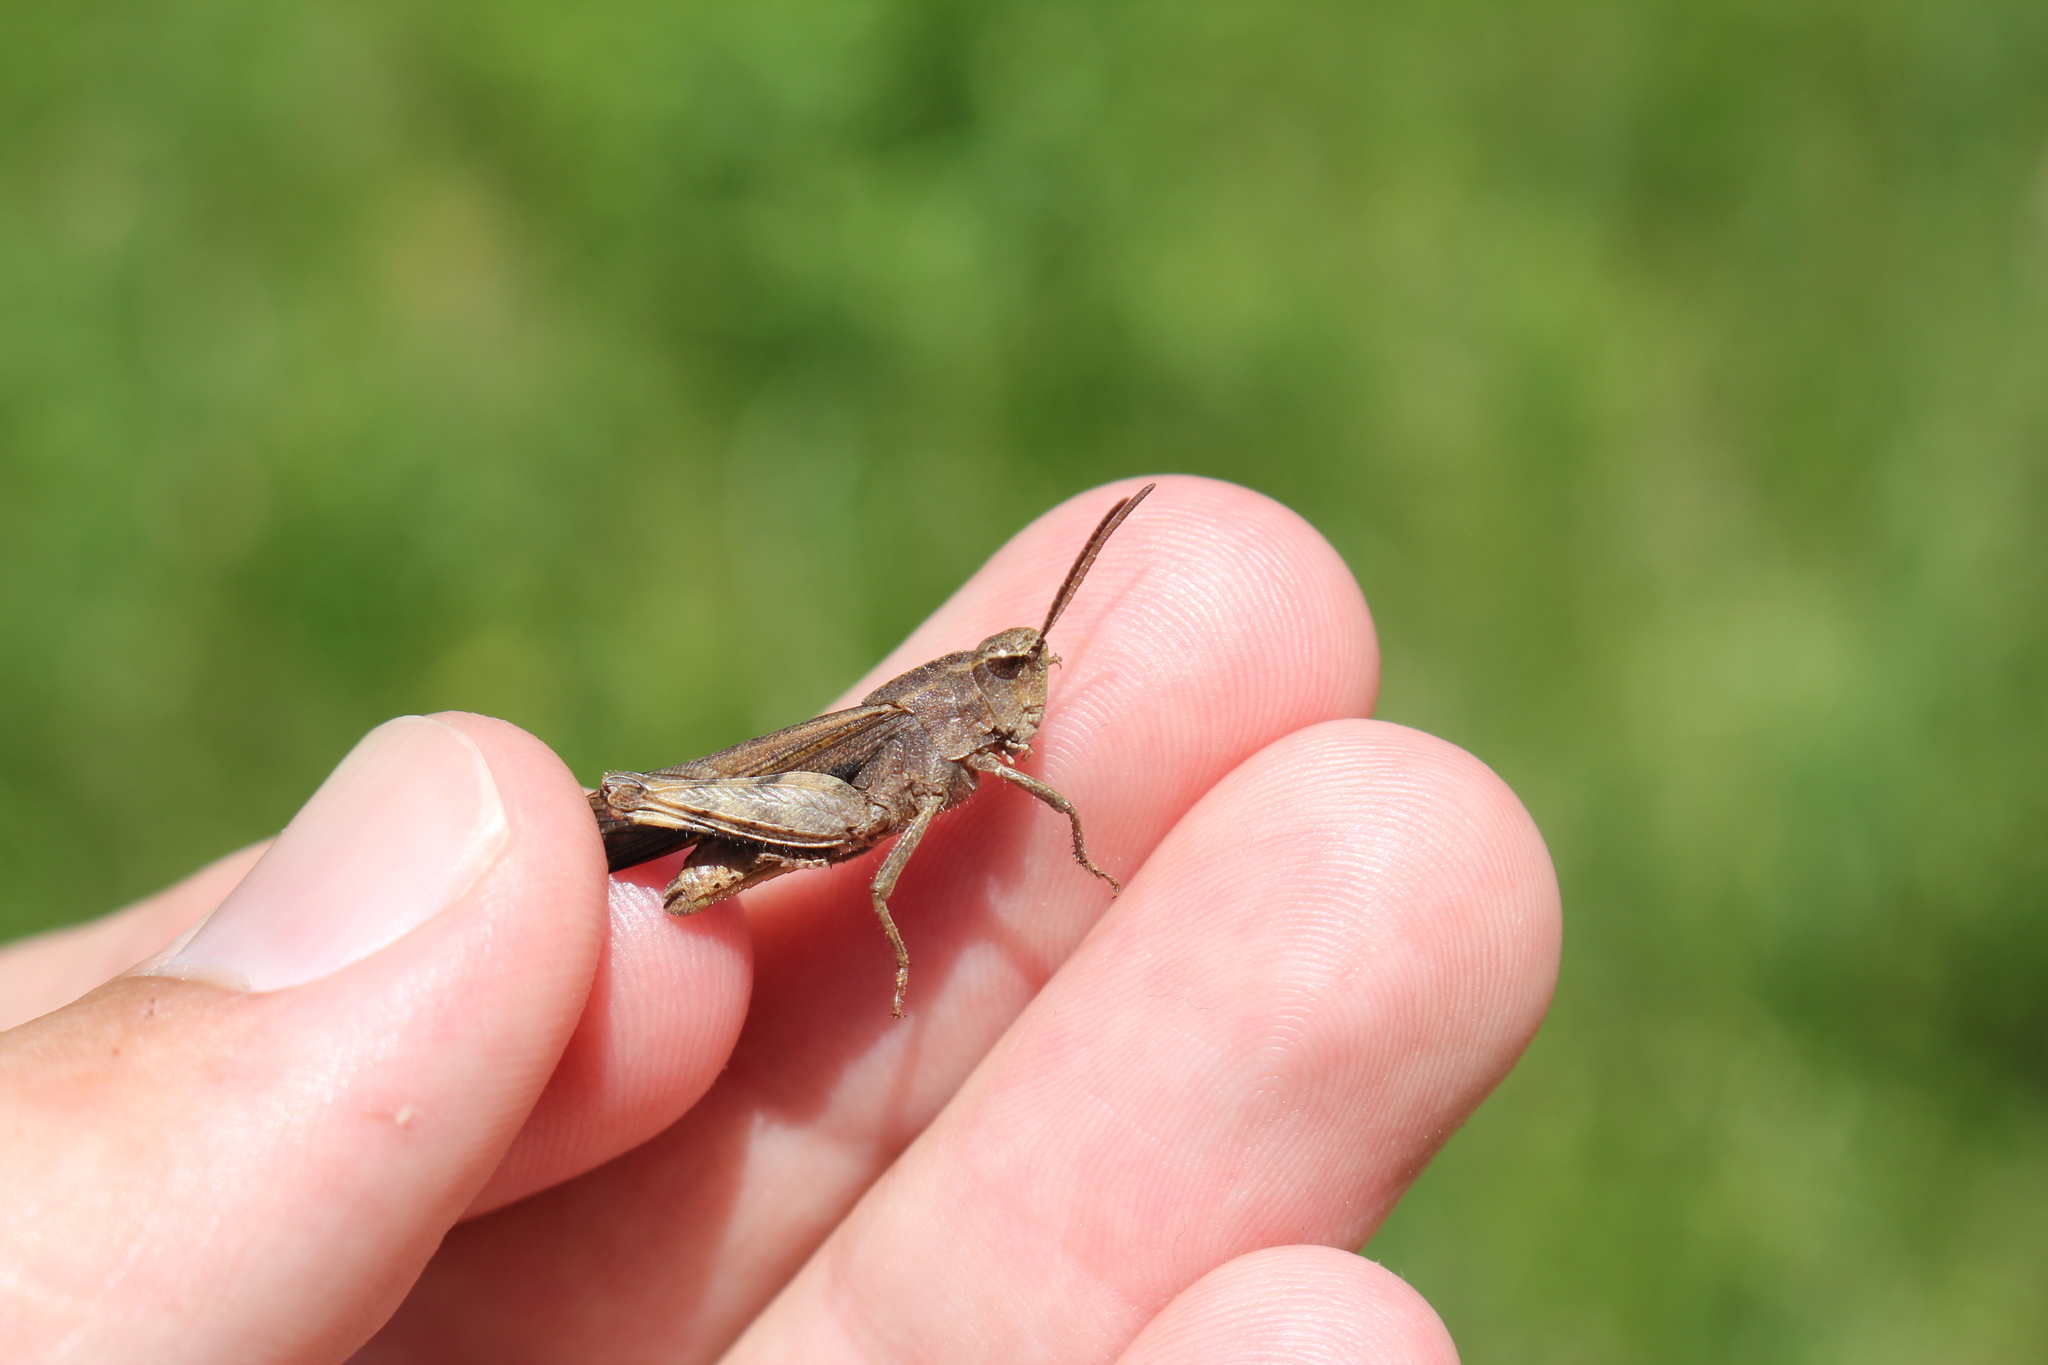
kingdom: Animalia
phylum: Arthropoda
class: Insecta
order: Orthoptera
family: Acrididae
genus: Chortophaga
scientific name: Chortophaga viridifasciata
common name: Green-striped grasshopper
